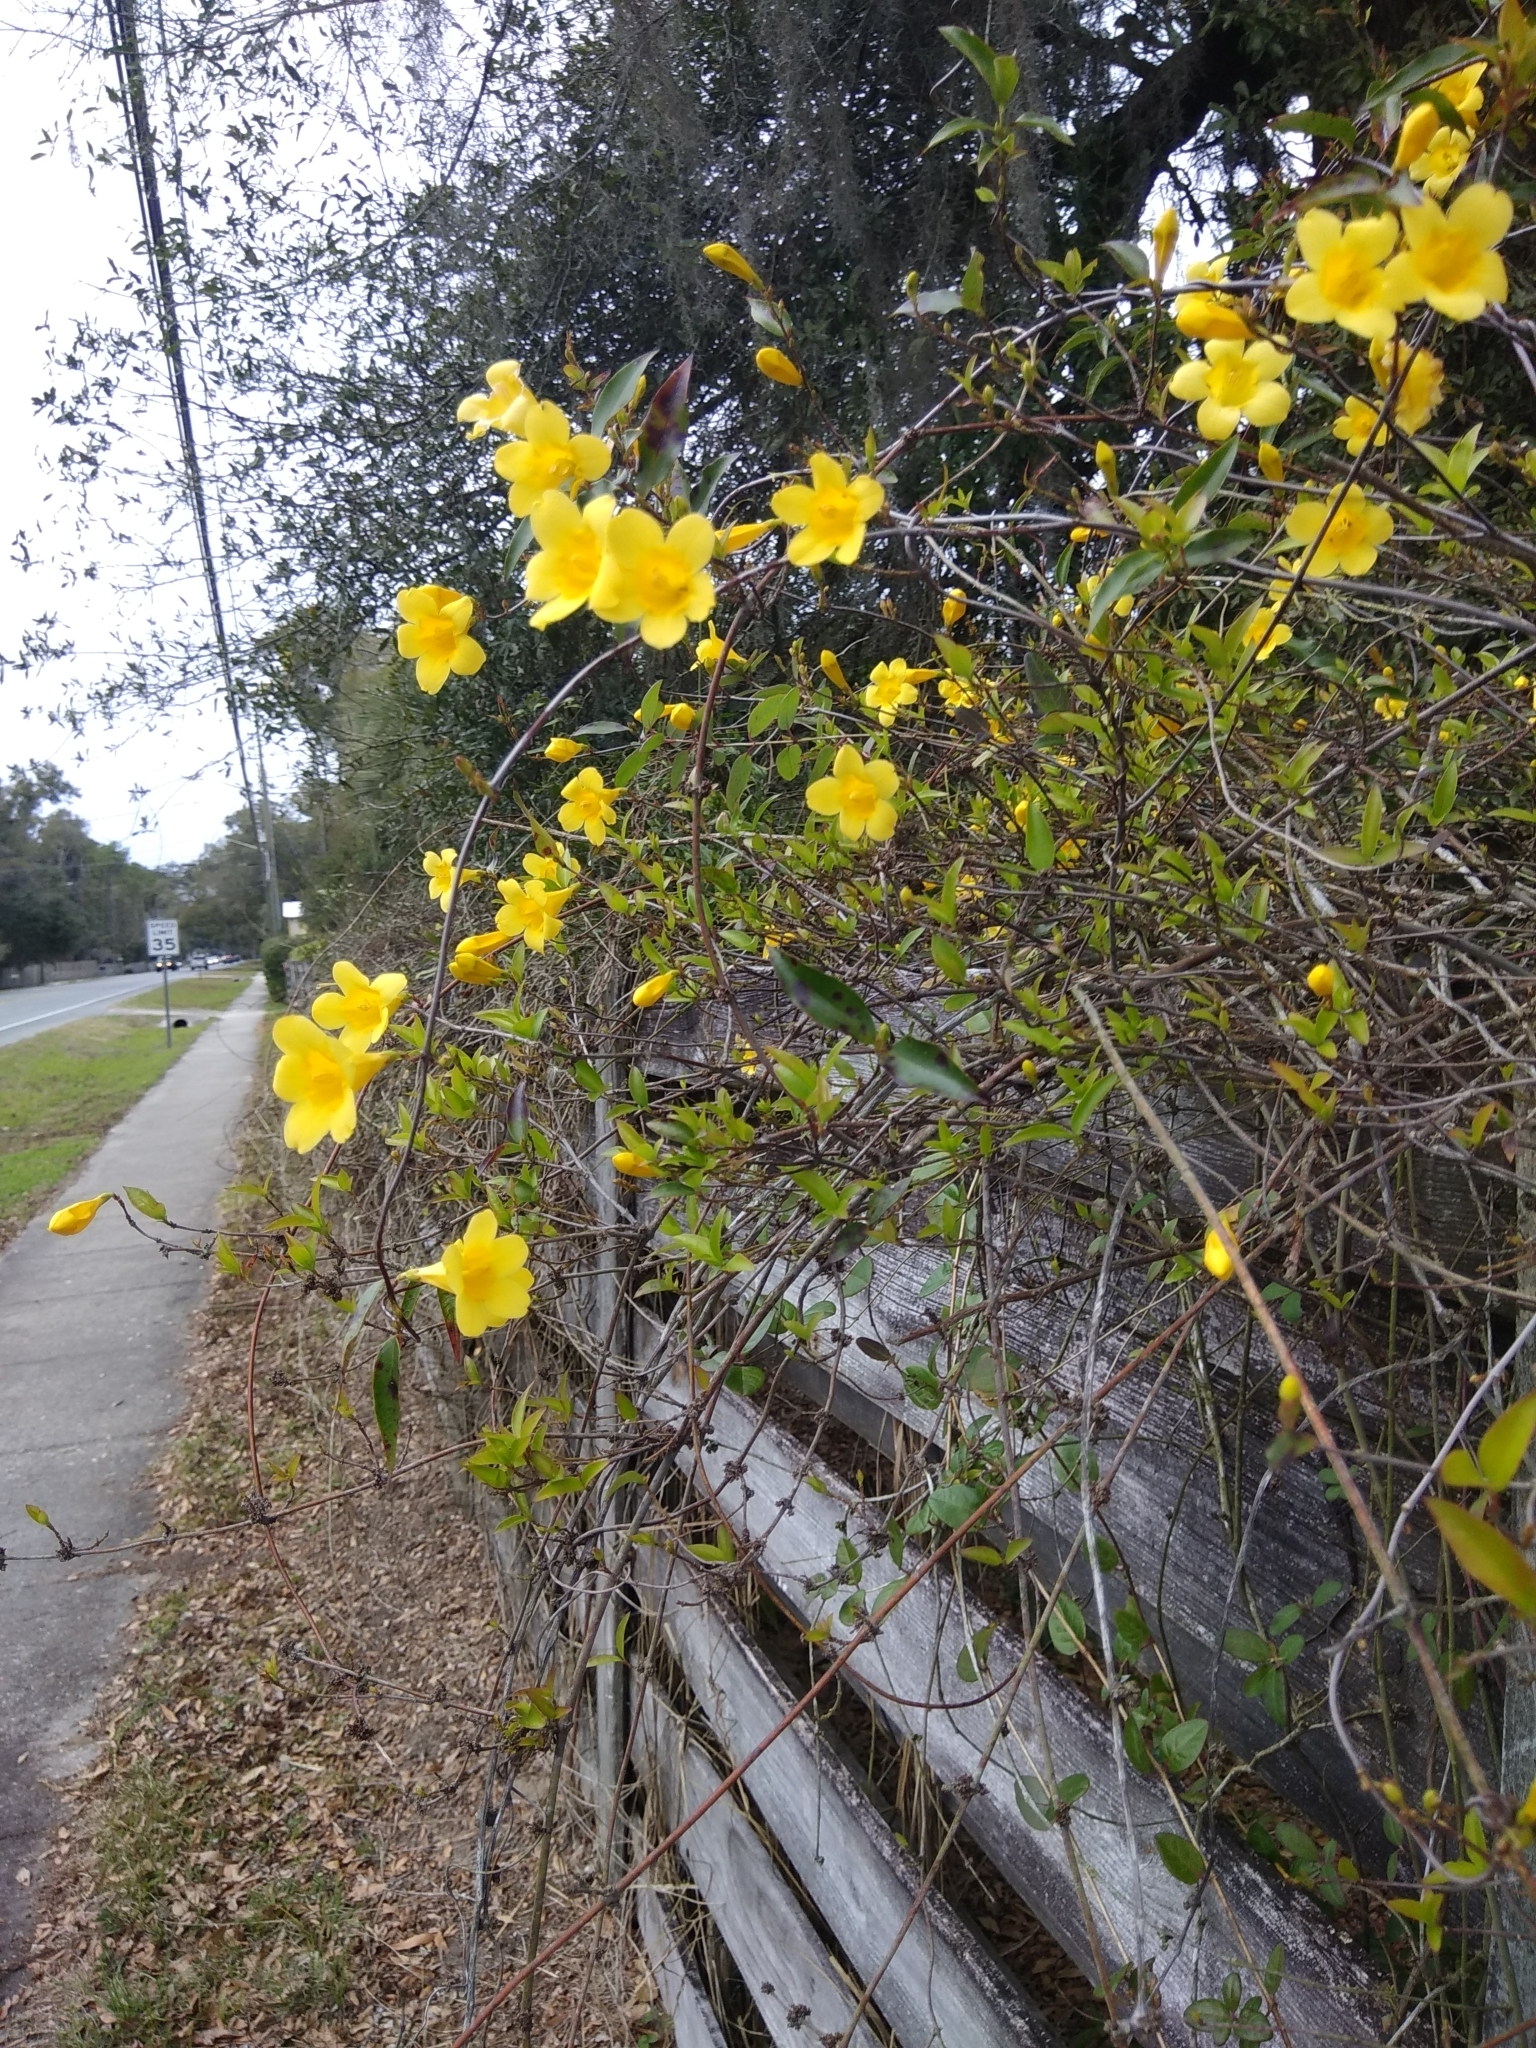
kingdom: Plantae
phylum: Tracheophyta
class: Magnoliopsida
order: Gentianales
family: Gelsemiaceae
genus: Gelsemium
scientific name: Gelsemium sempervirens
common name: Carolina-jasmine
